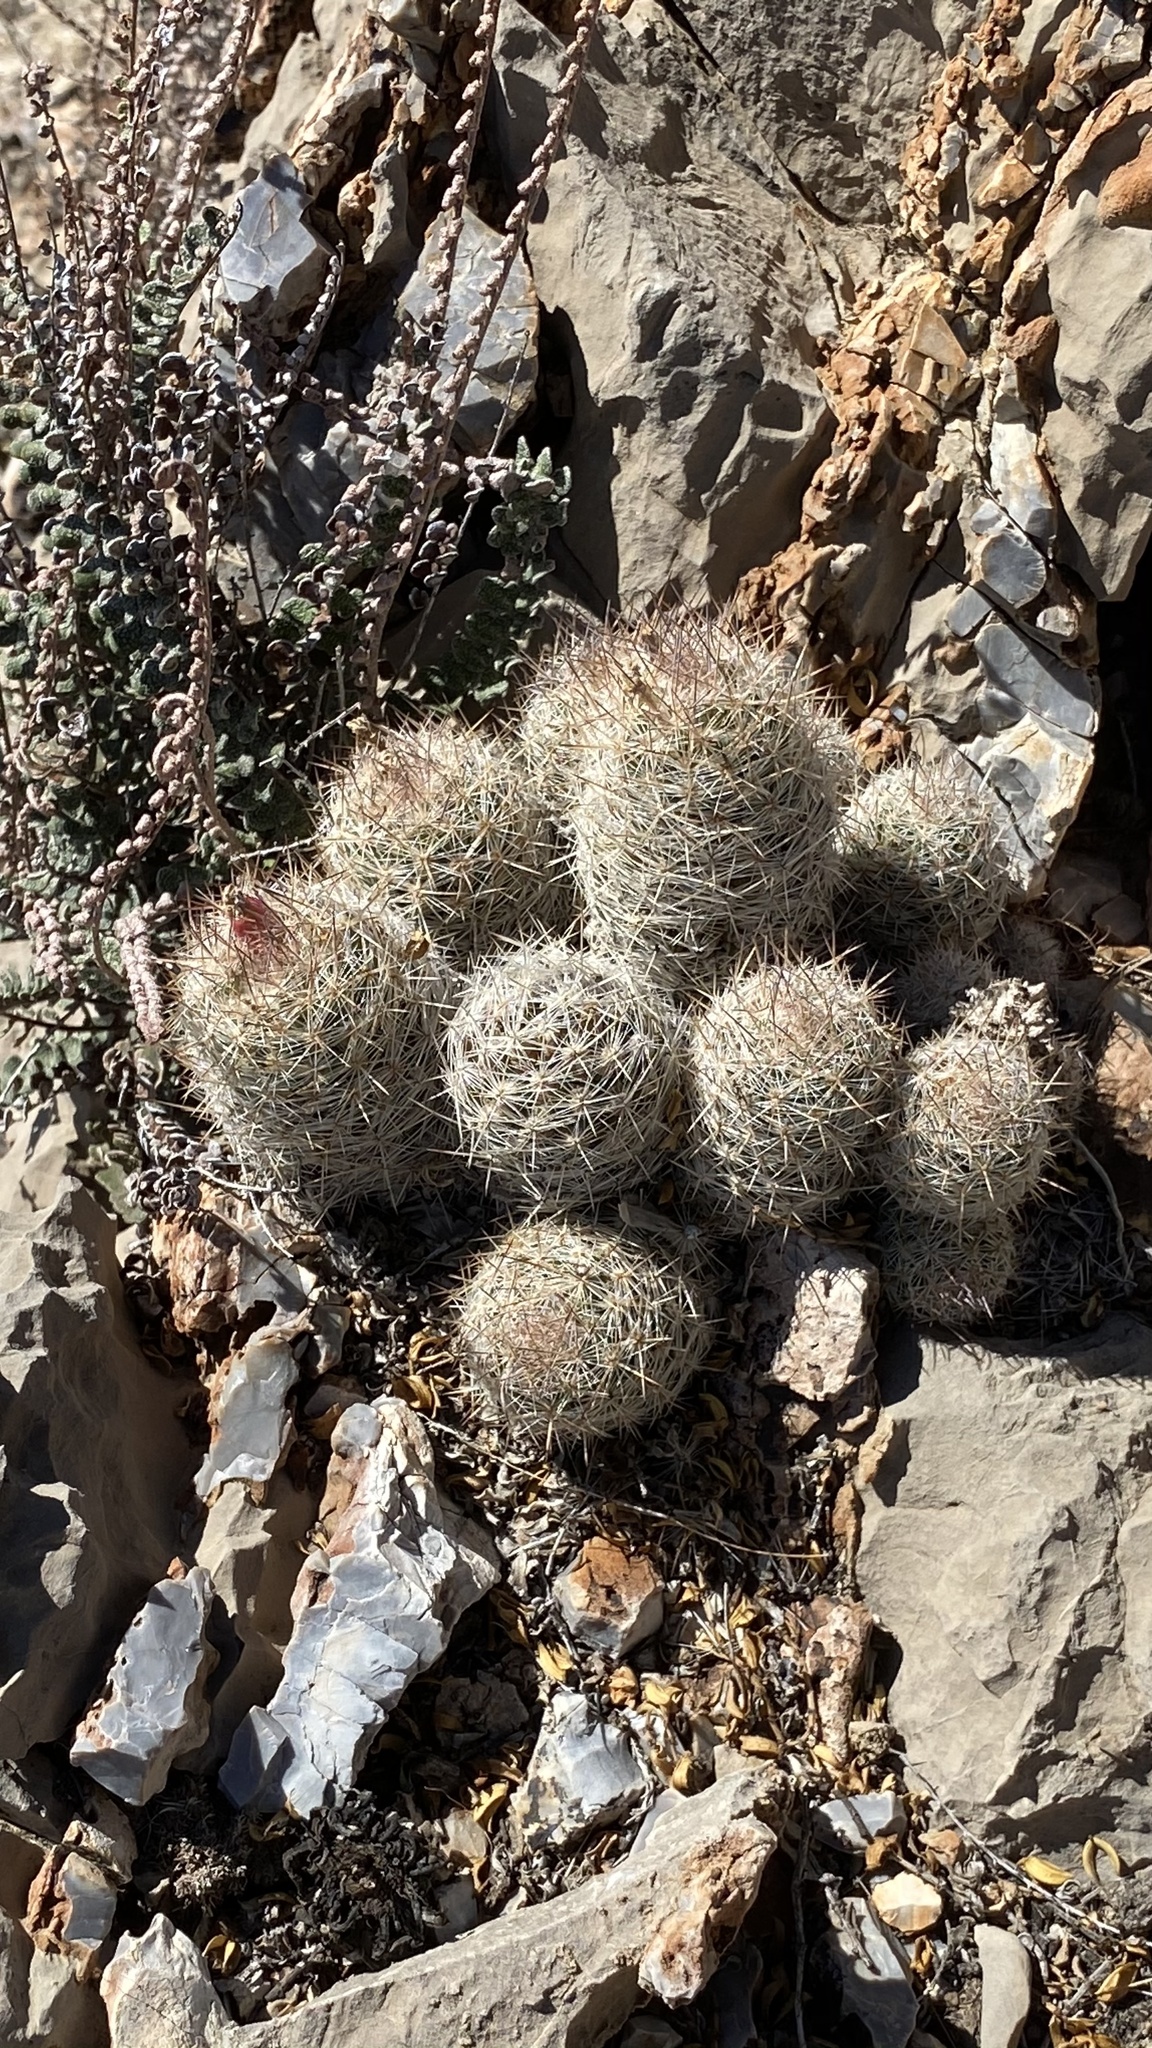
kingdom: Plantae
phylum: Tracheophyta
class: Magnoliopsida
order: Caryophyllales
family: Cactaceae
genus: Pelecyphora
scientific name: Pelecyphora tuberculosa
